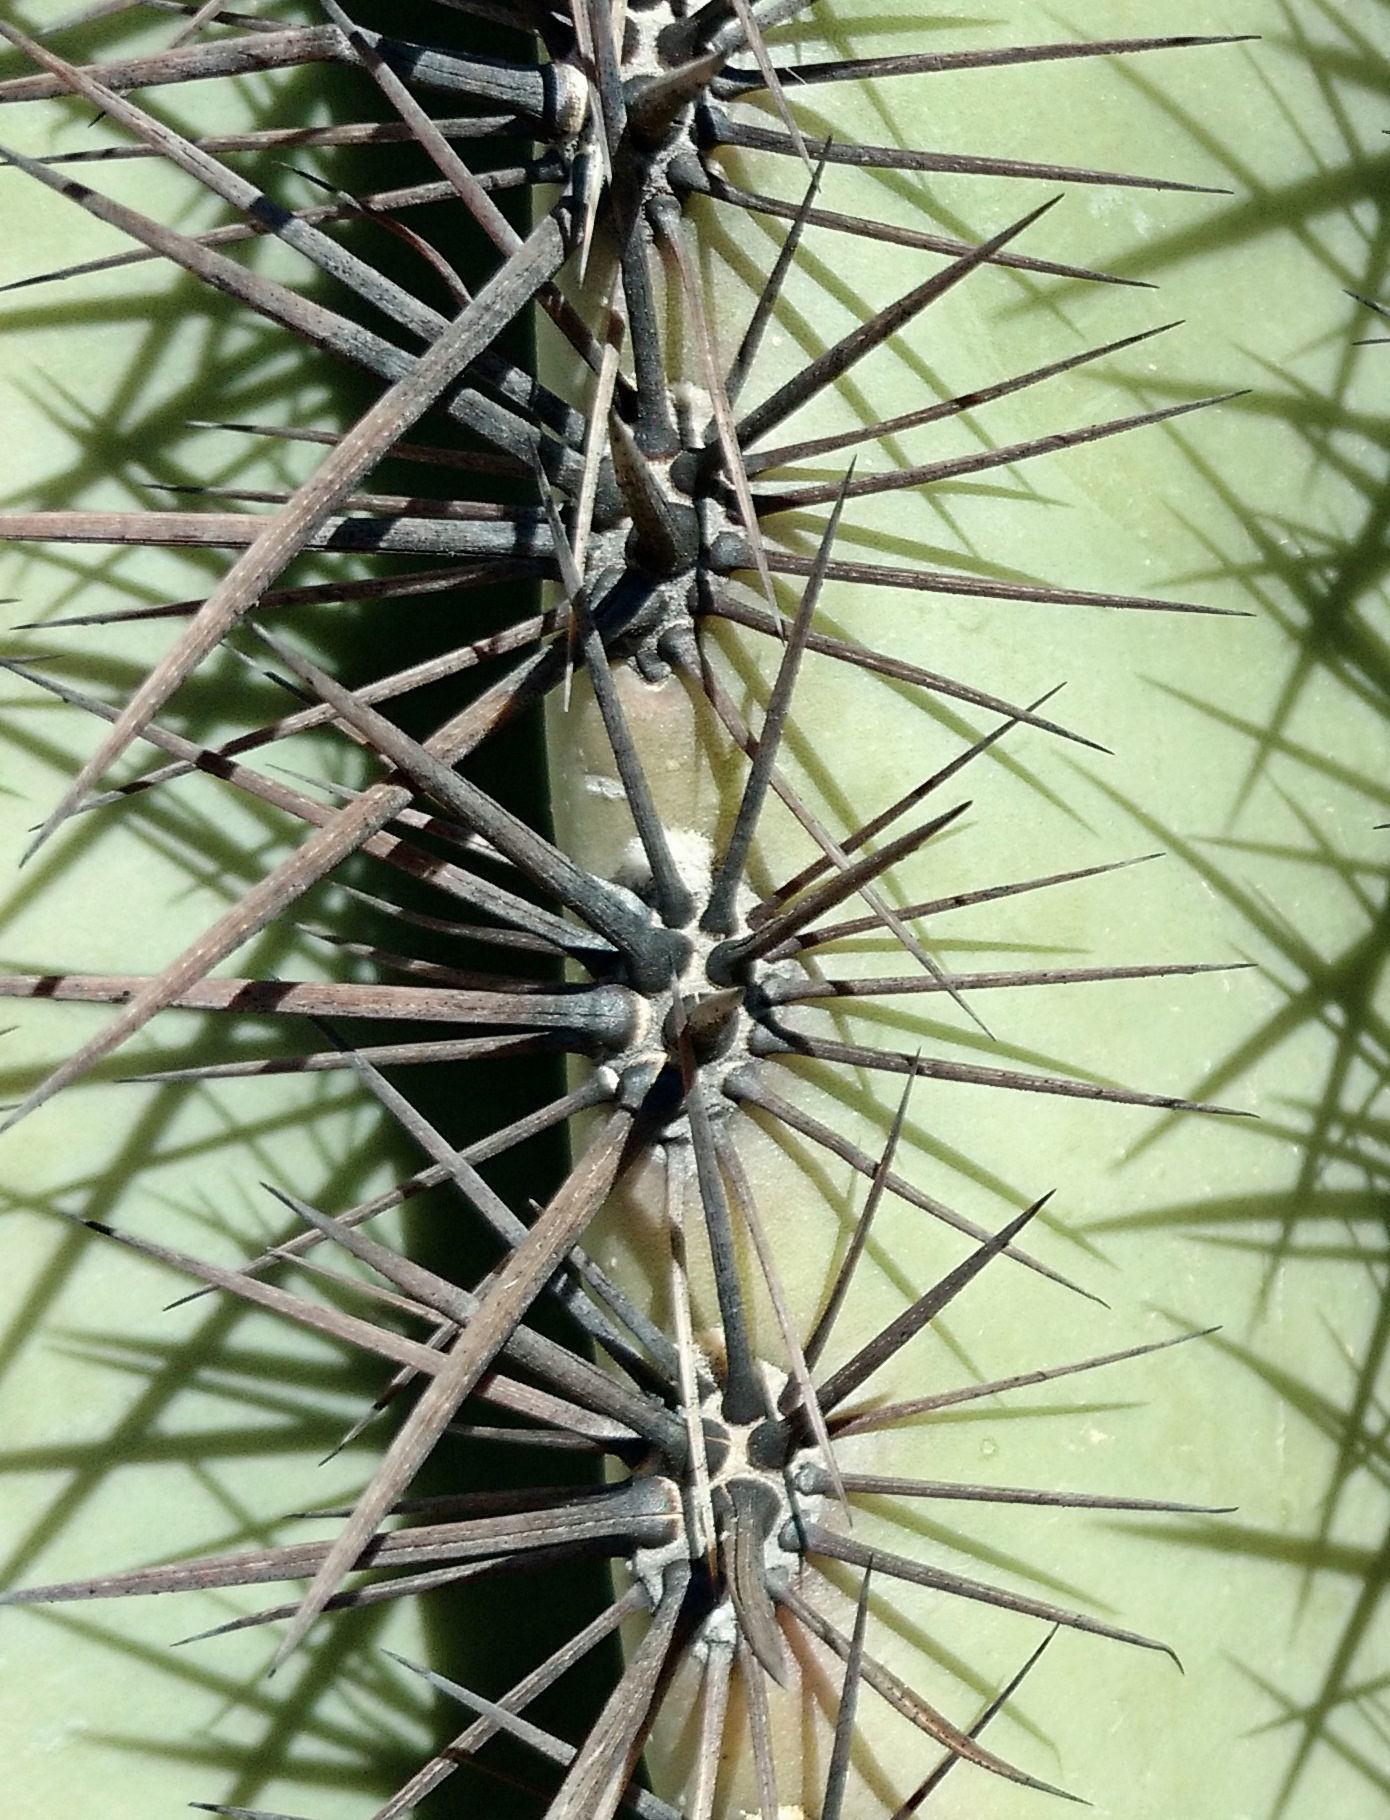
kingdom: Plantae
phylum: Tracheophyta
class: Magnoliopsida
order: Caryophyllales
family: Cactaceae
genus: Carnegiea
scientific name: Carnegiea gigantea
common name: Saguaro
